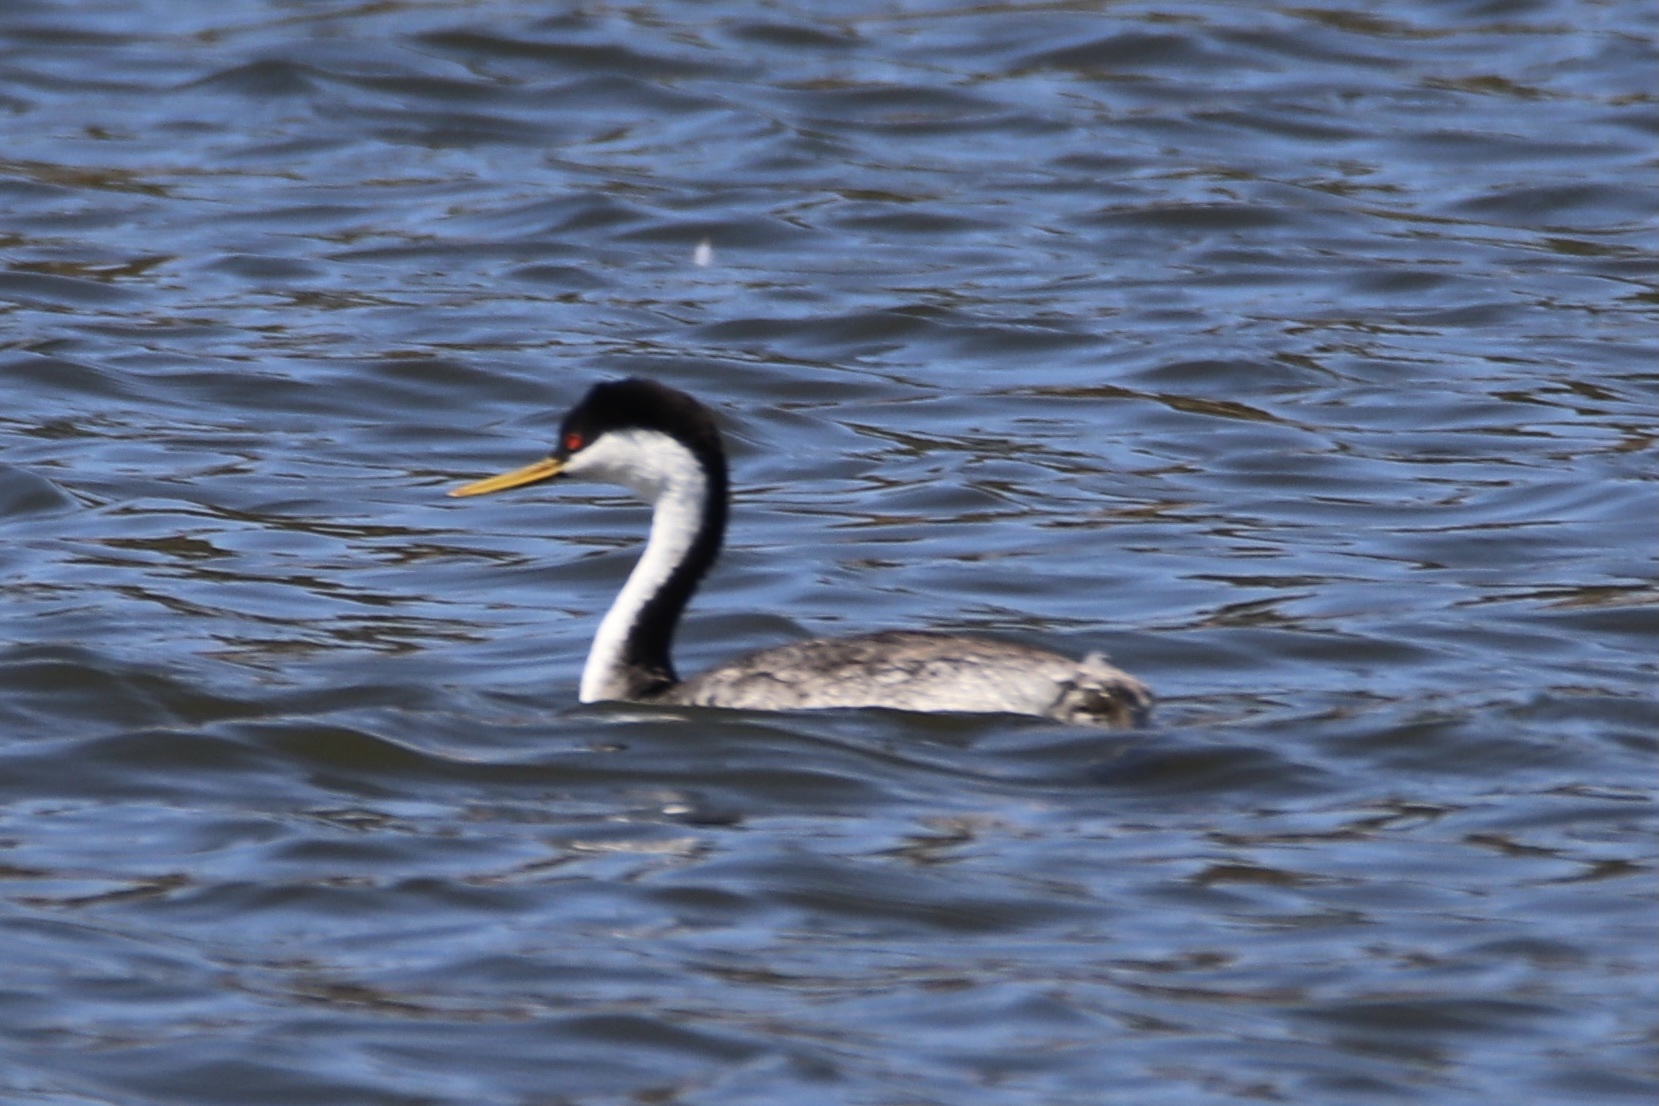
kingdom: Animalia
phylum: Chordata
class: Aves
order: Podicipediformes
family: Podicipedidae
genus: Aechmophorus
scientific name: Aechmophorus occidentalis
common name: Western grebe
